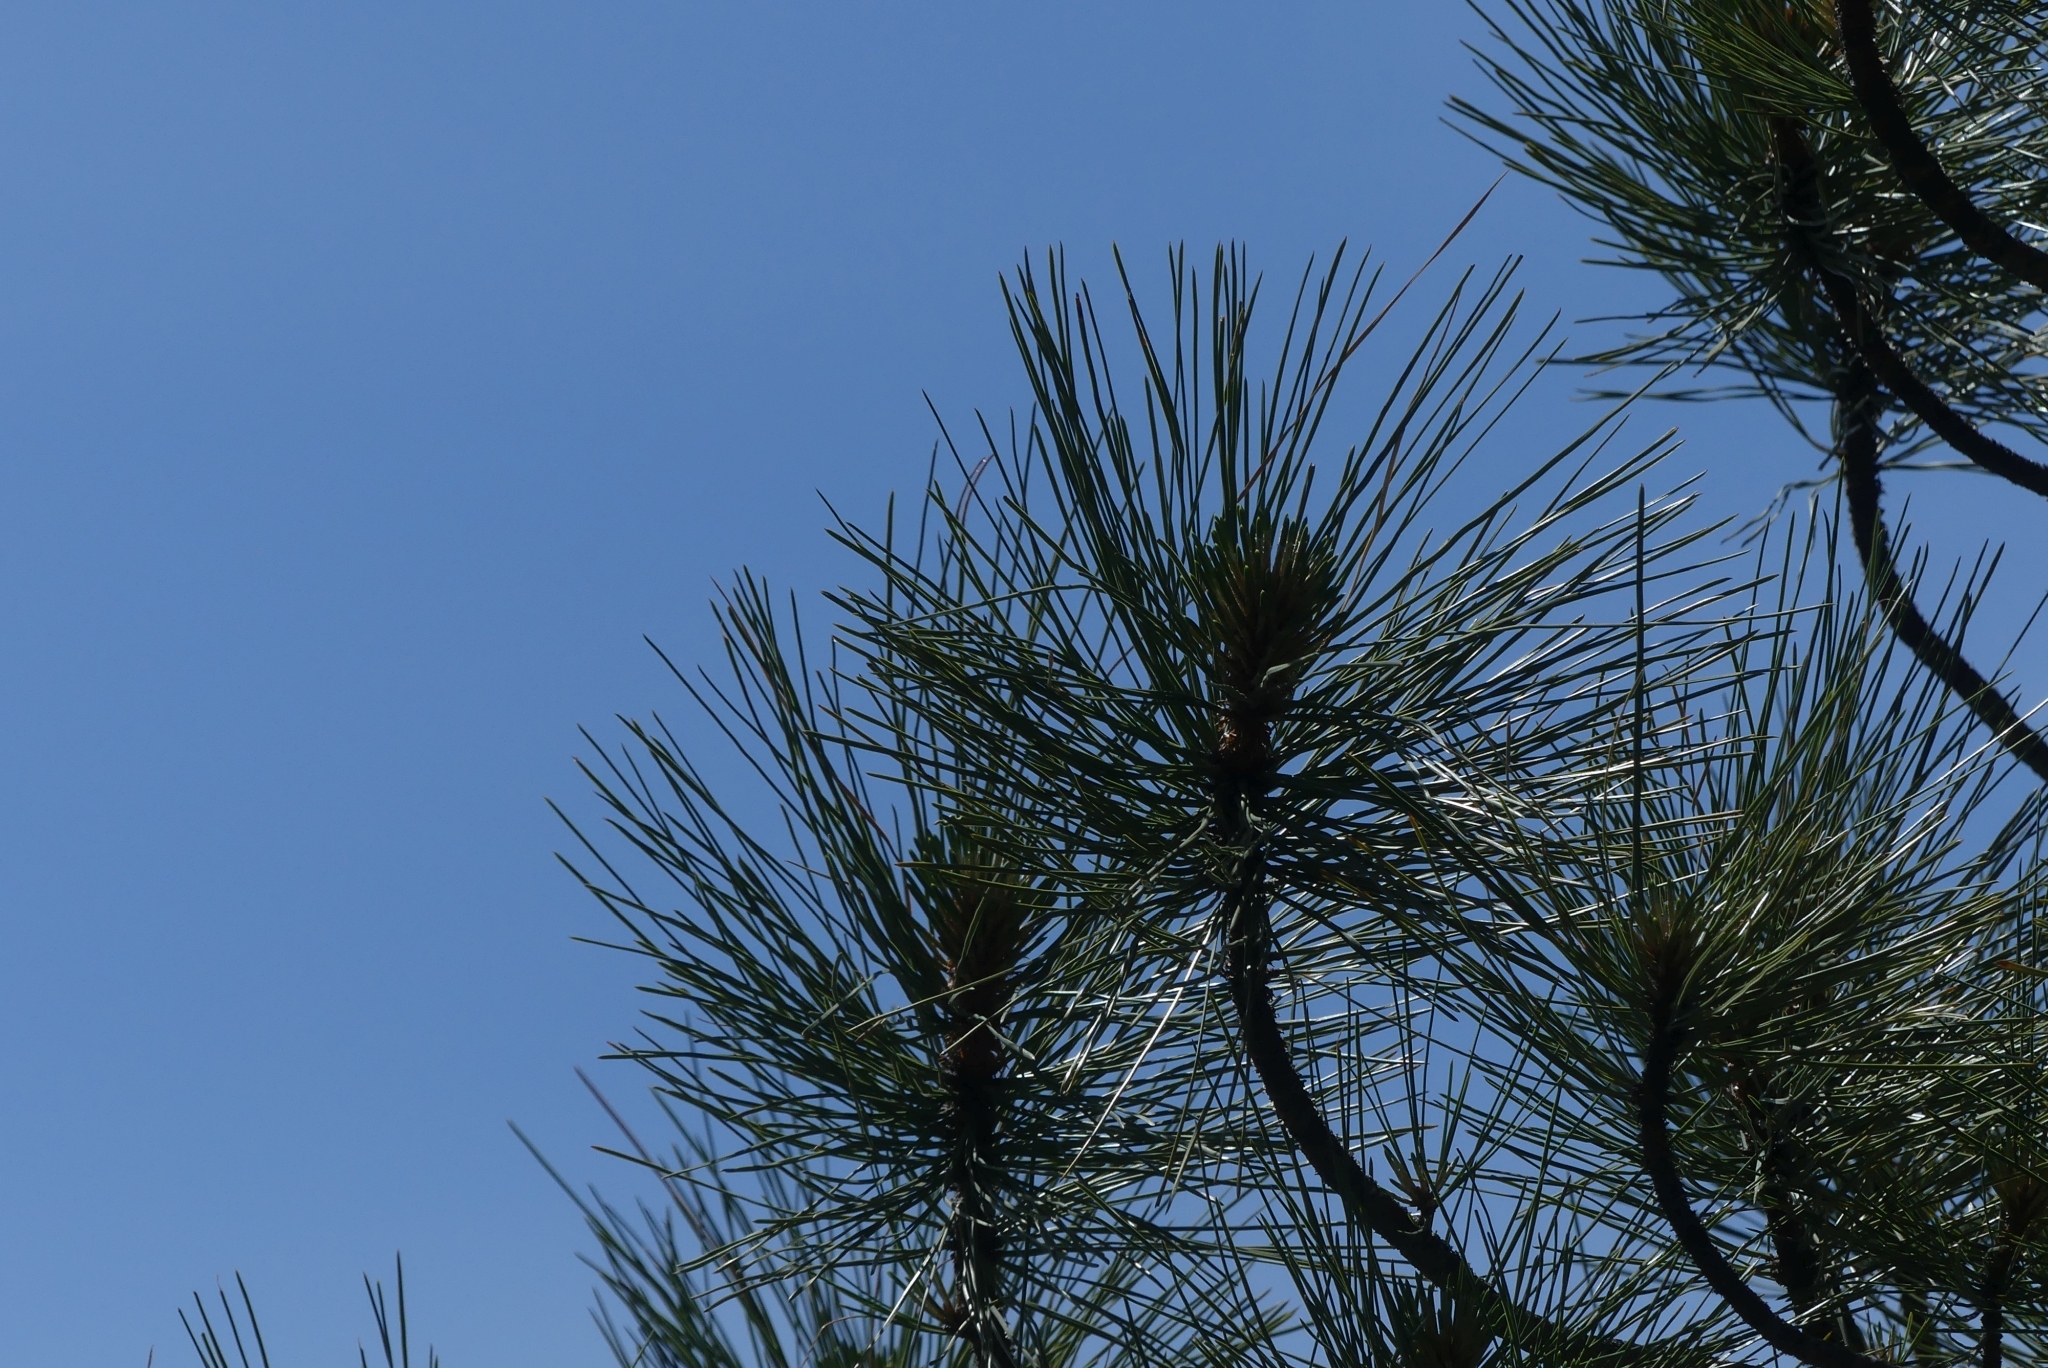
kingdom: Plantae
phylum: Tracheophyta
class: Pinopsida
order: Pinales
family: Pinaceae
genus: Pinus
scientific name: Pinus ponderosa
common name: Western yellow-pine
